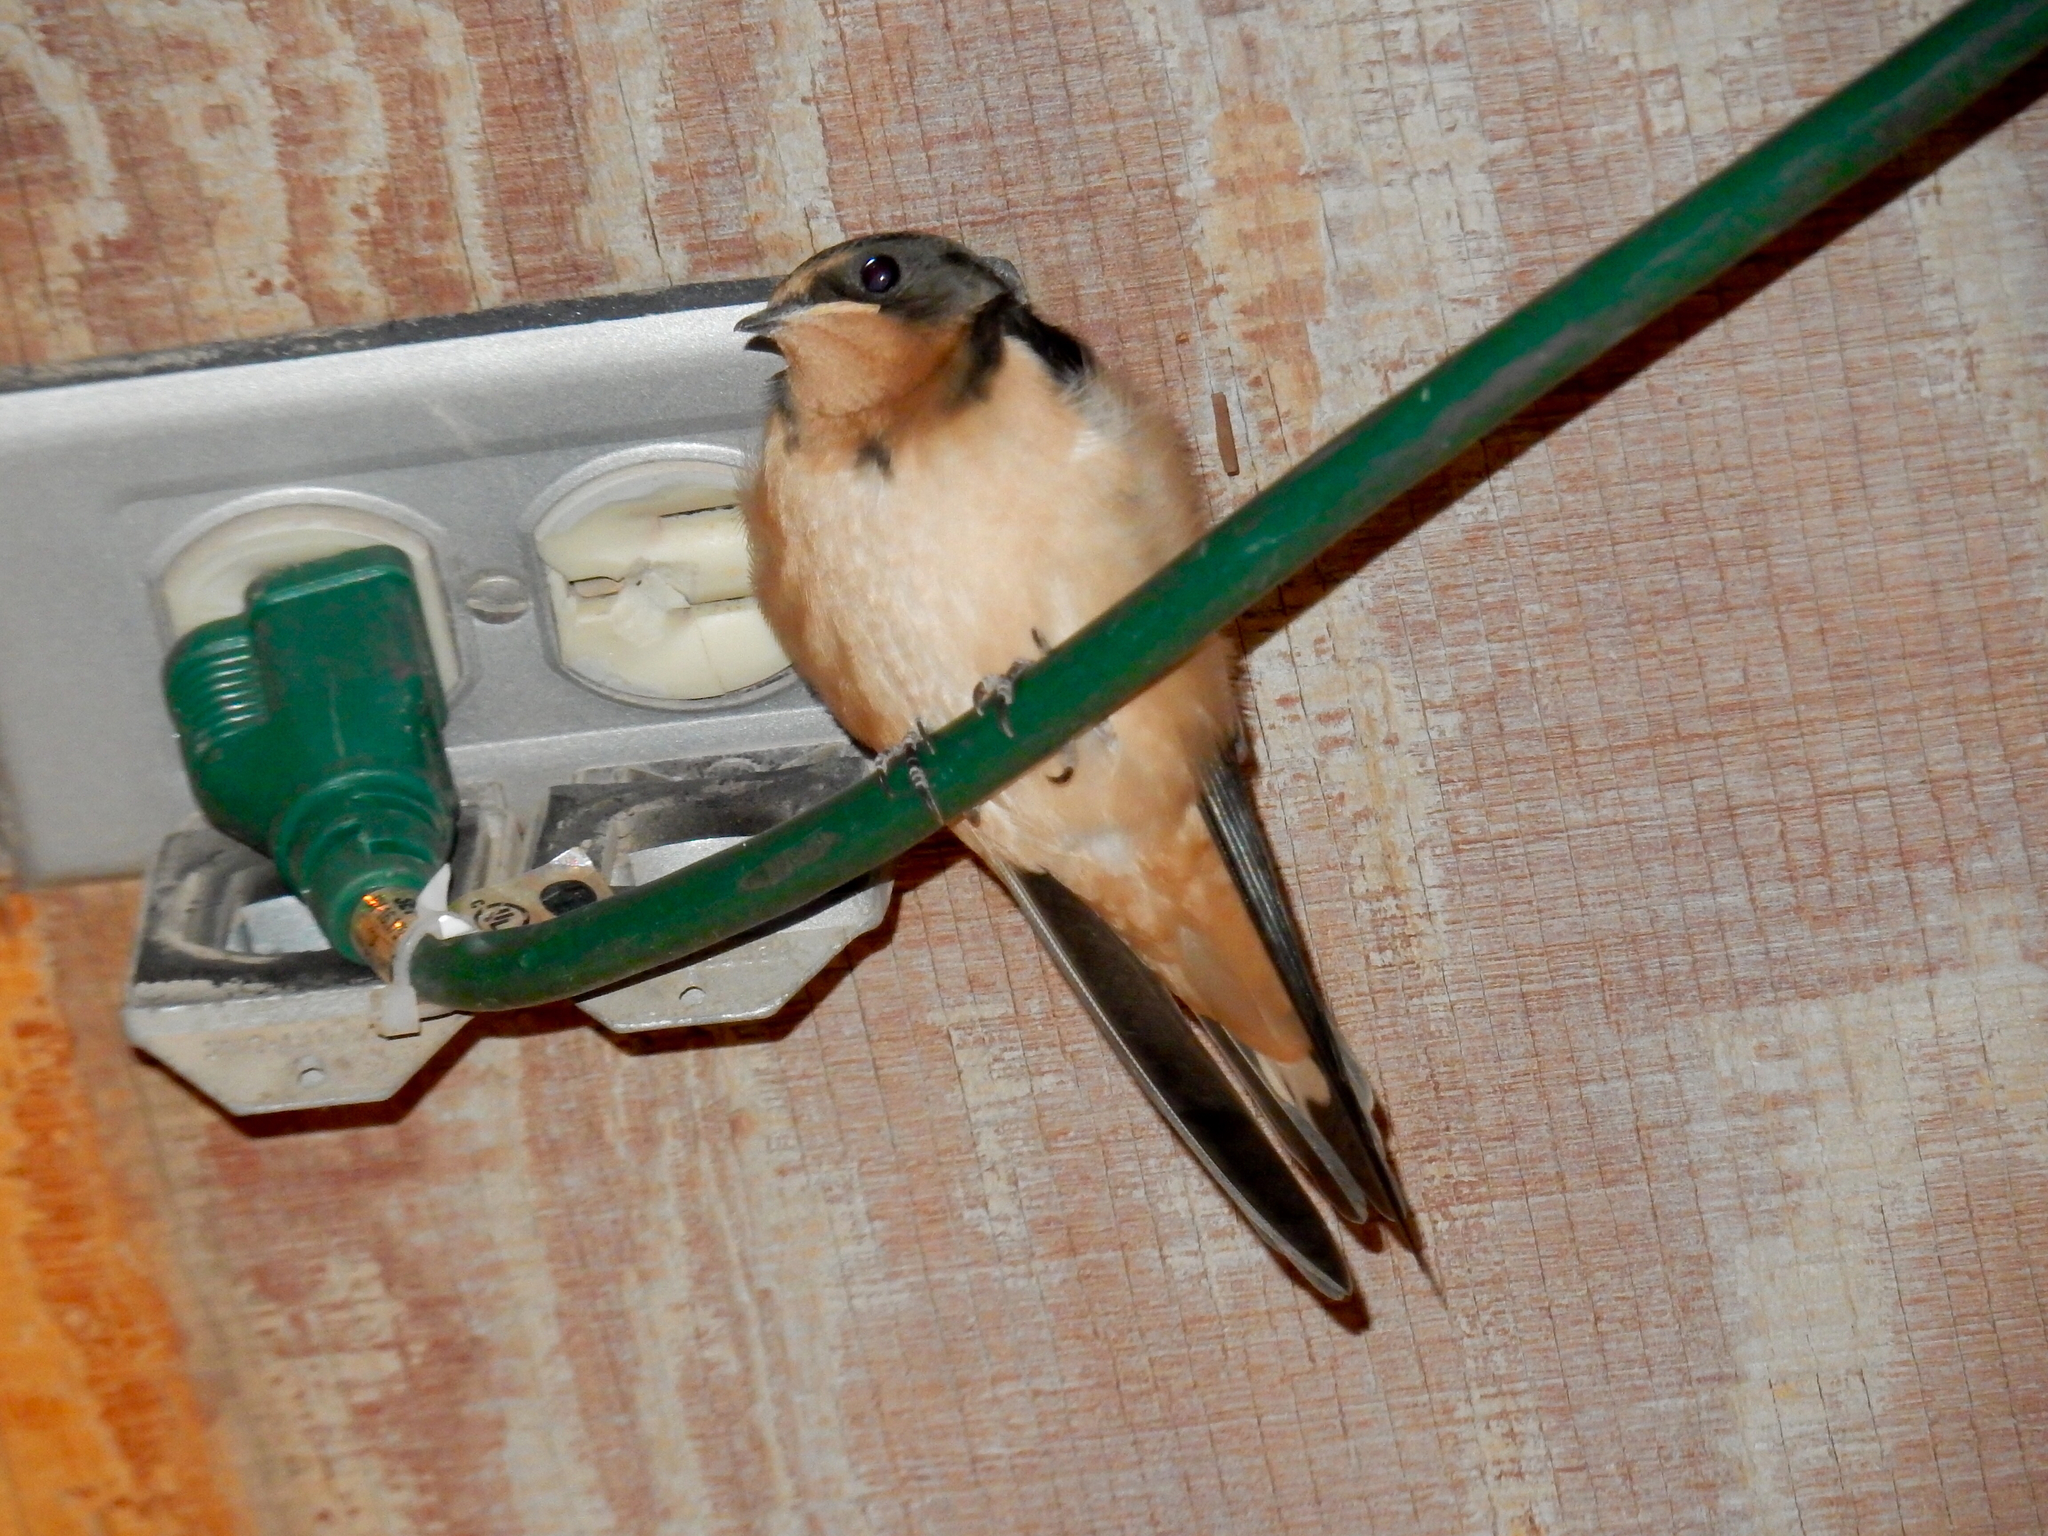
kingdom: Animalia
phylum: Chordata
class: Aves
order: Passeriformes
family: Hirundinidae
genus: Hirundo
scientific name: Hirundo rustica
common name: Barn swallow
